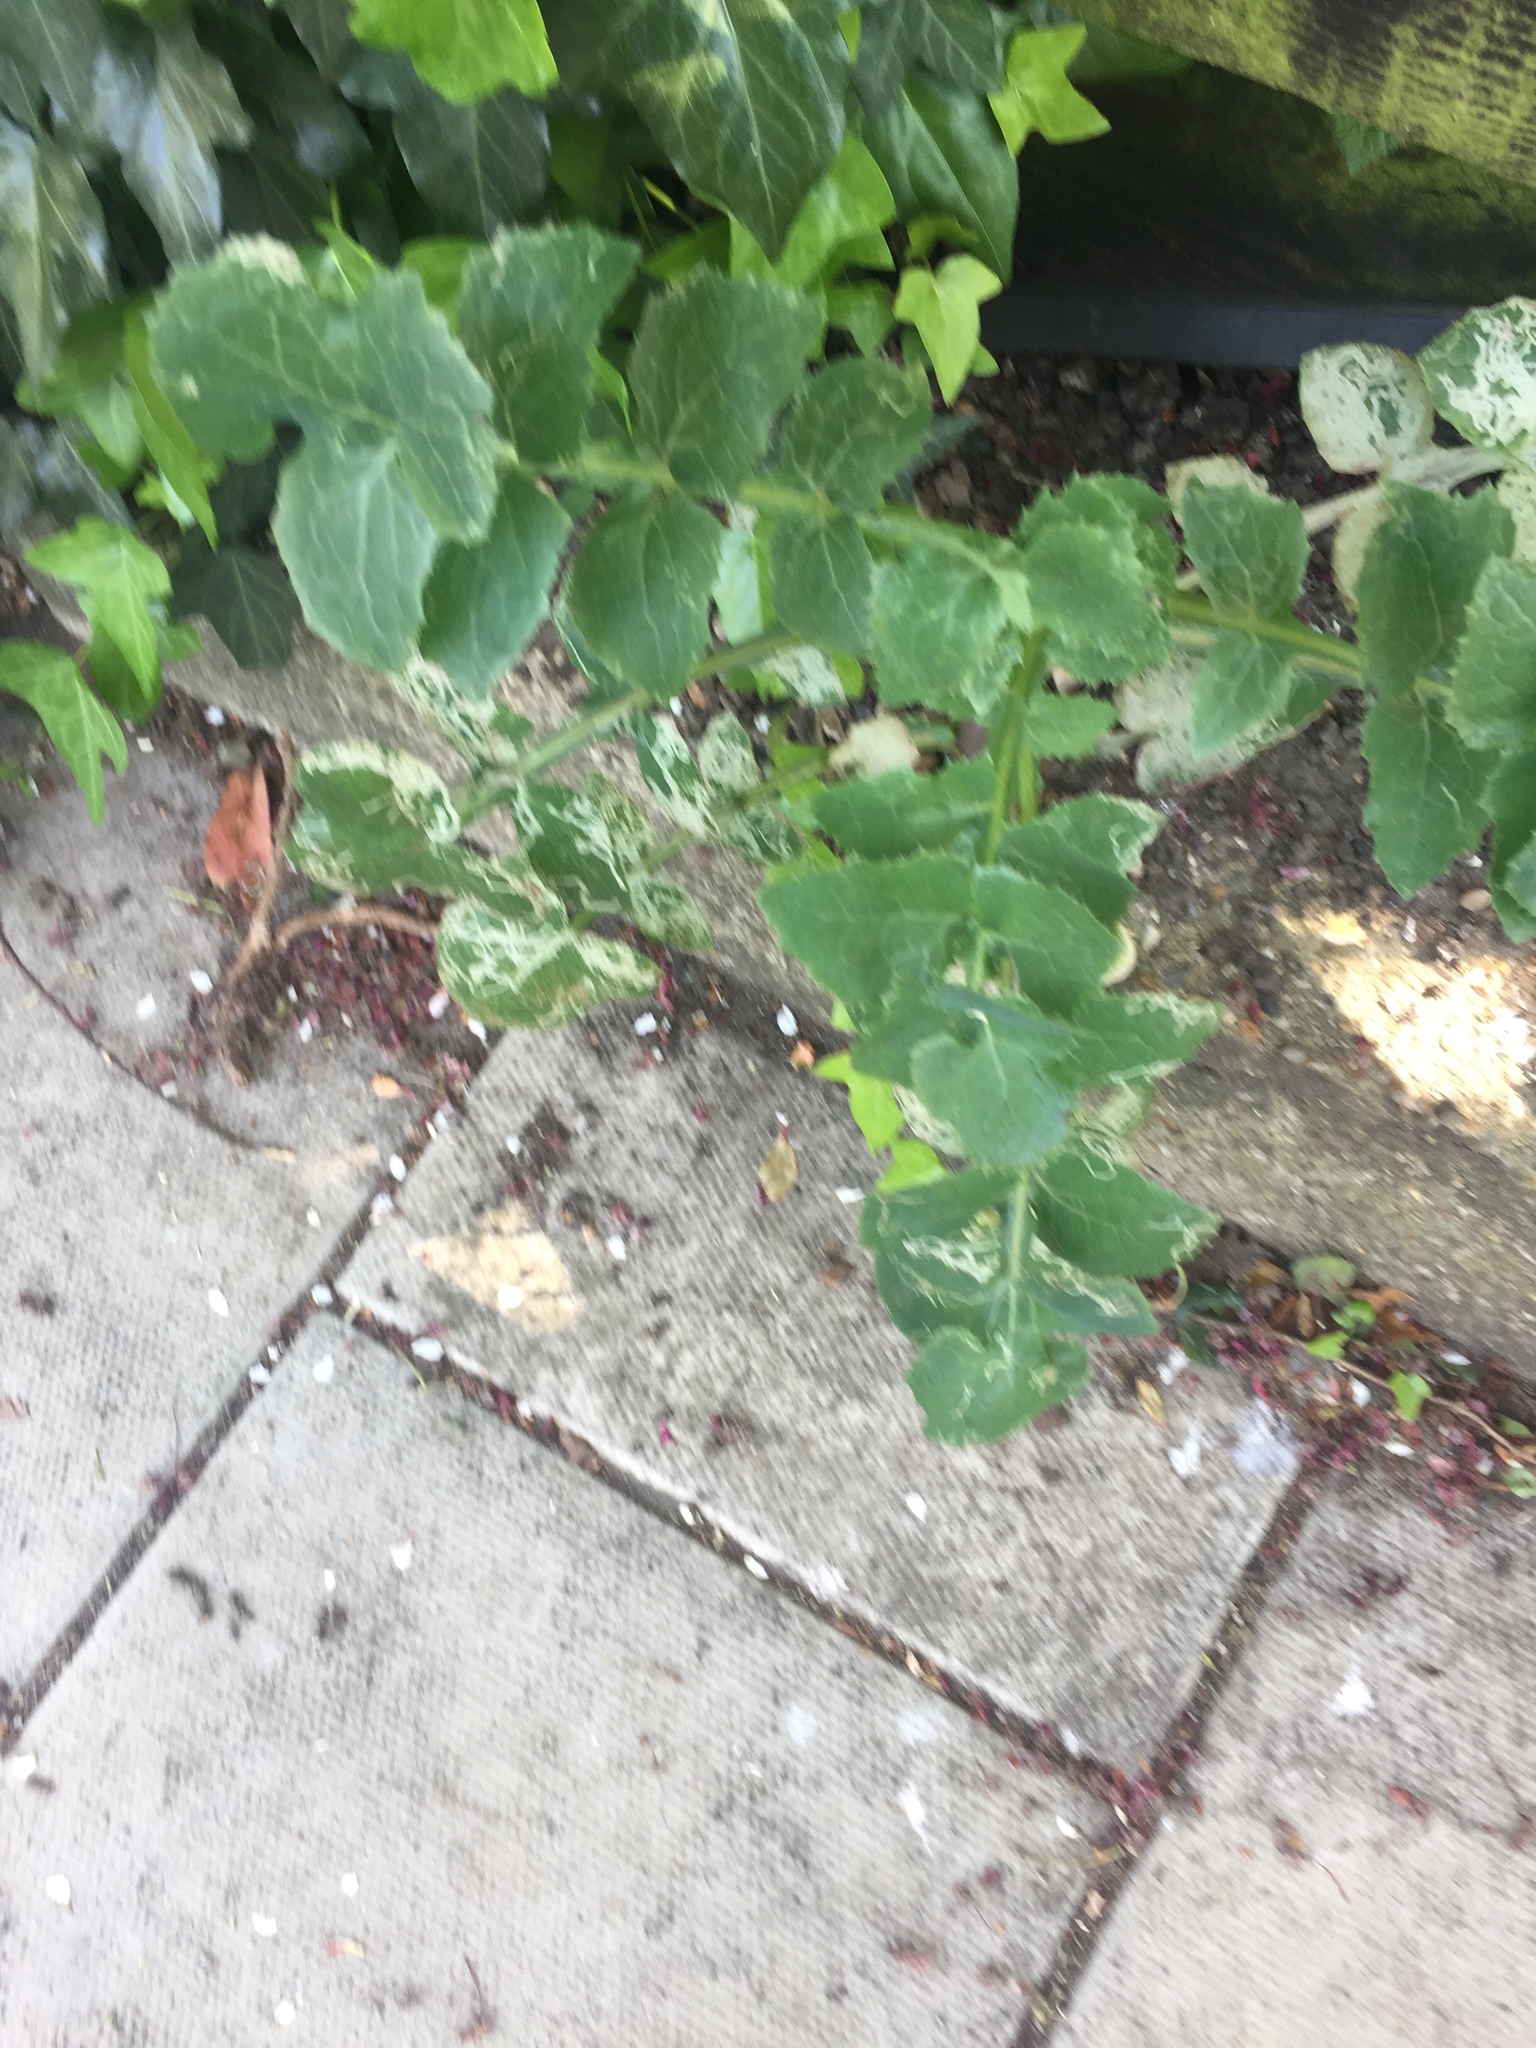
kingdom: Plantae
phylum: Tracheophyta
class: Magnoliopsida
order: Asterales
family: Asteraceae
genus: Sonchus
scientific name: Sonchus oleraceus
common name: Common sowthistle
